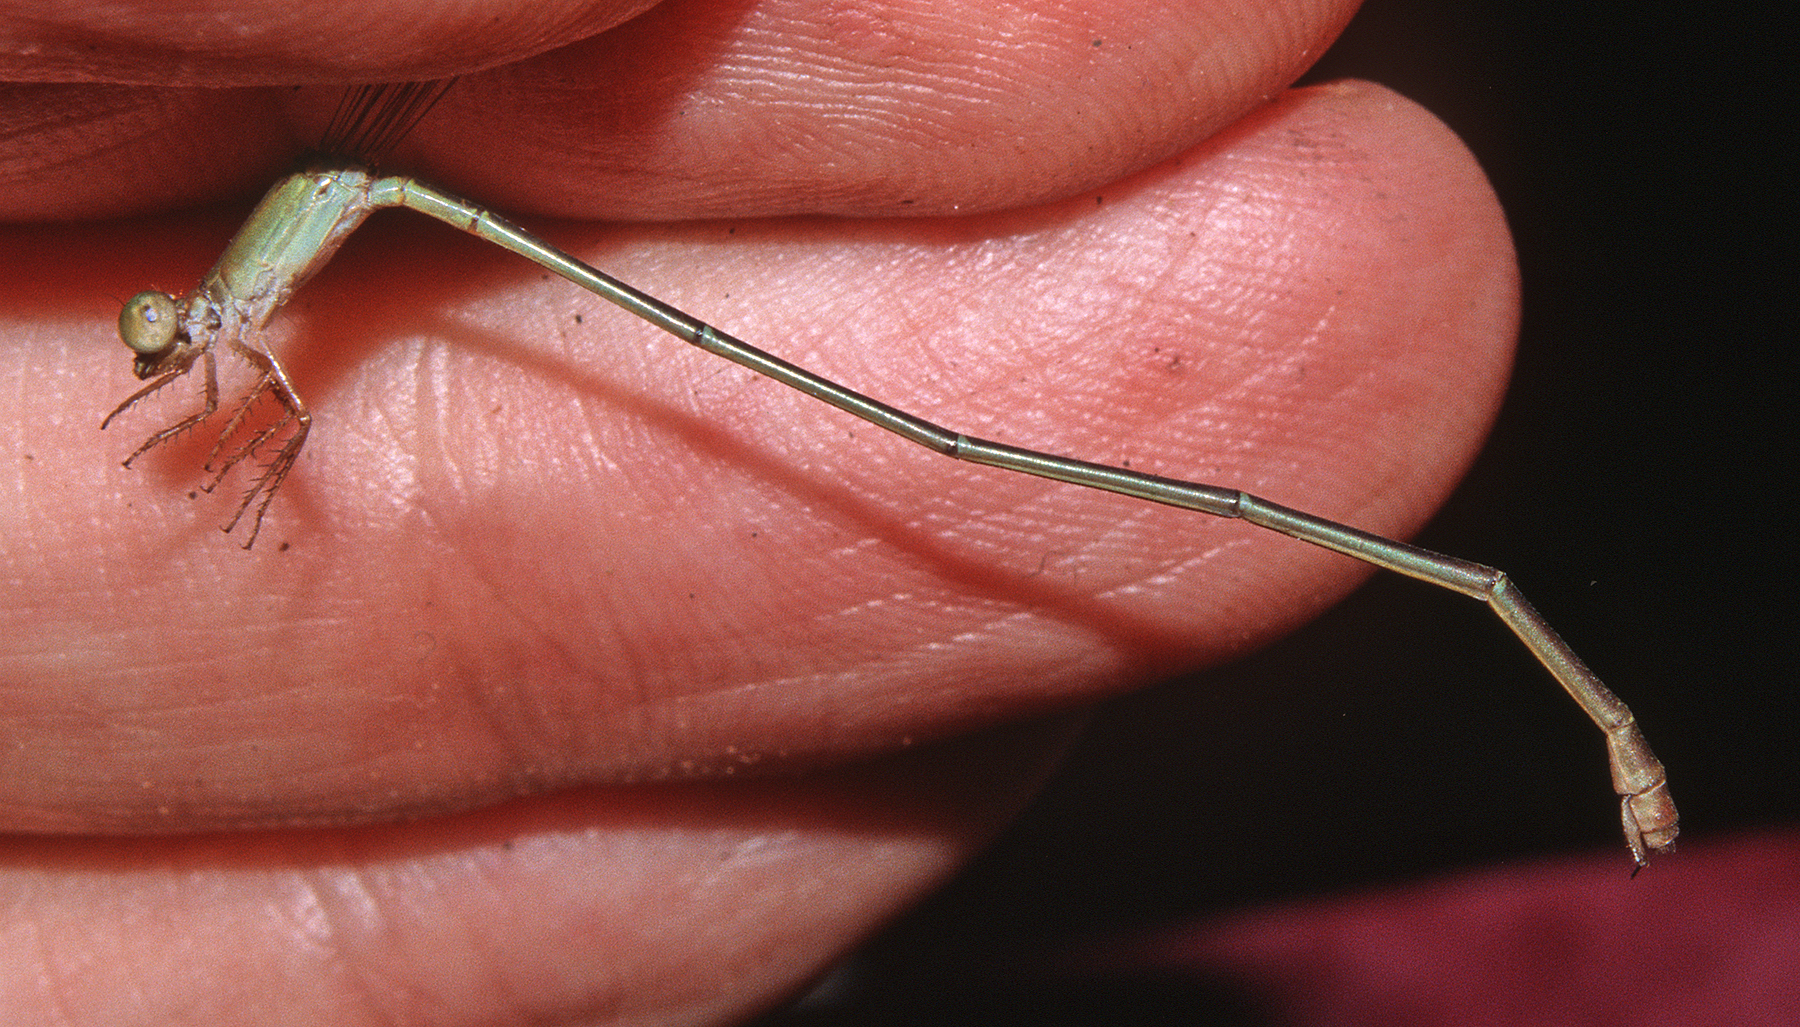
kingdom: Animalia
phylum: Arthropoda
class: Insecta
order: Odonata
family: Coenagrionidae
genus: Metaleptobasis
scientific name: Metaleptobasis diceras
